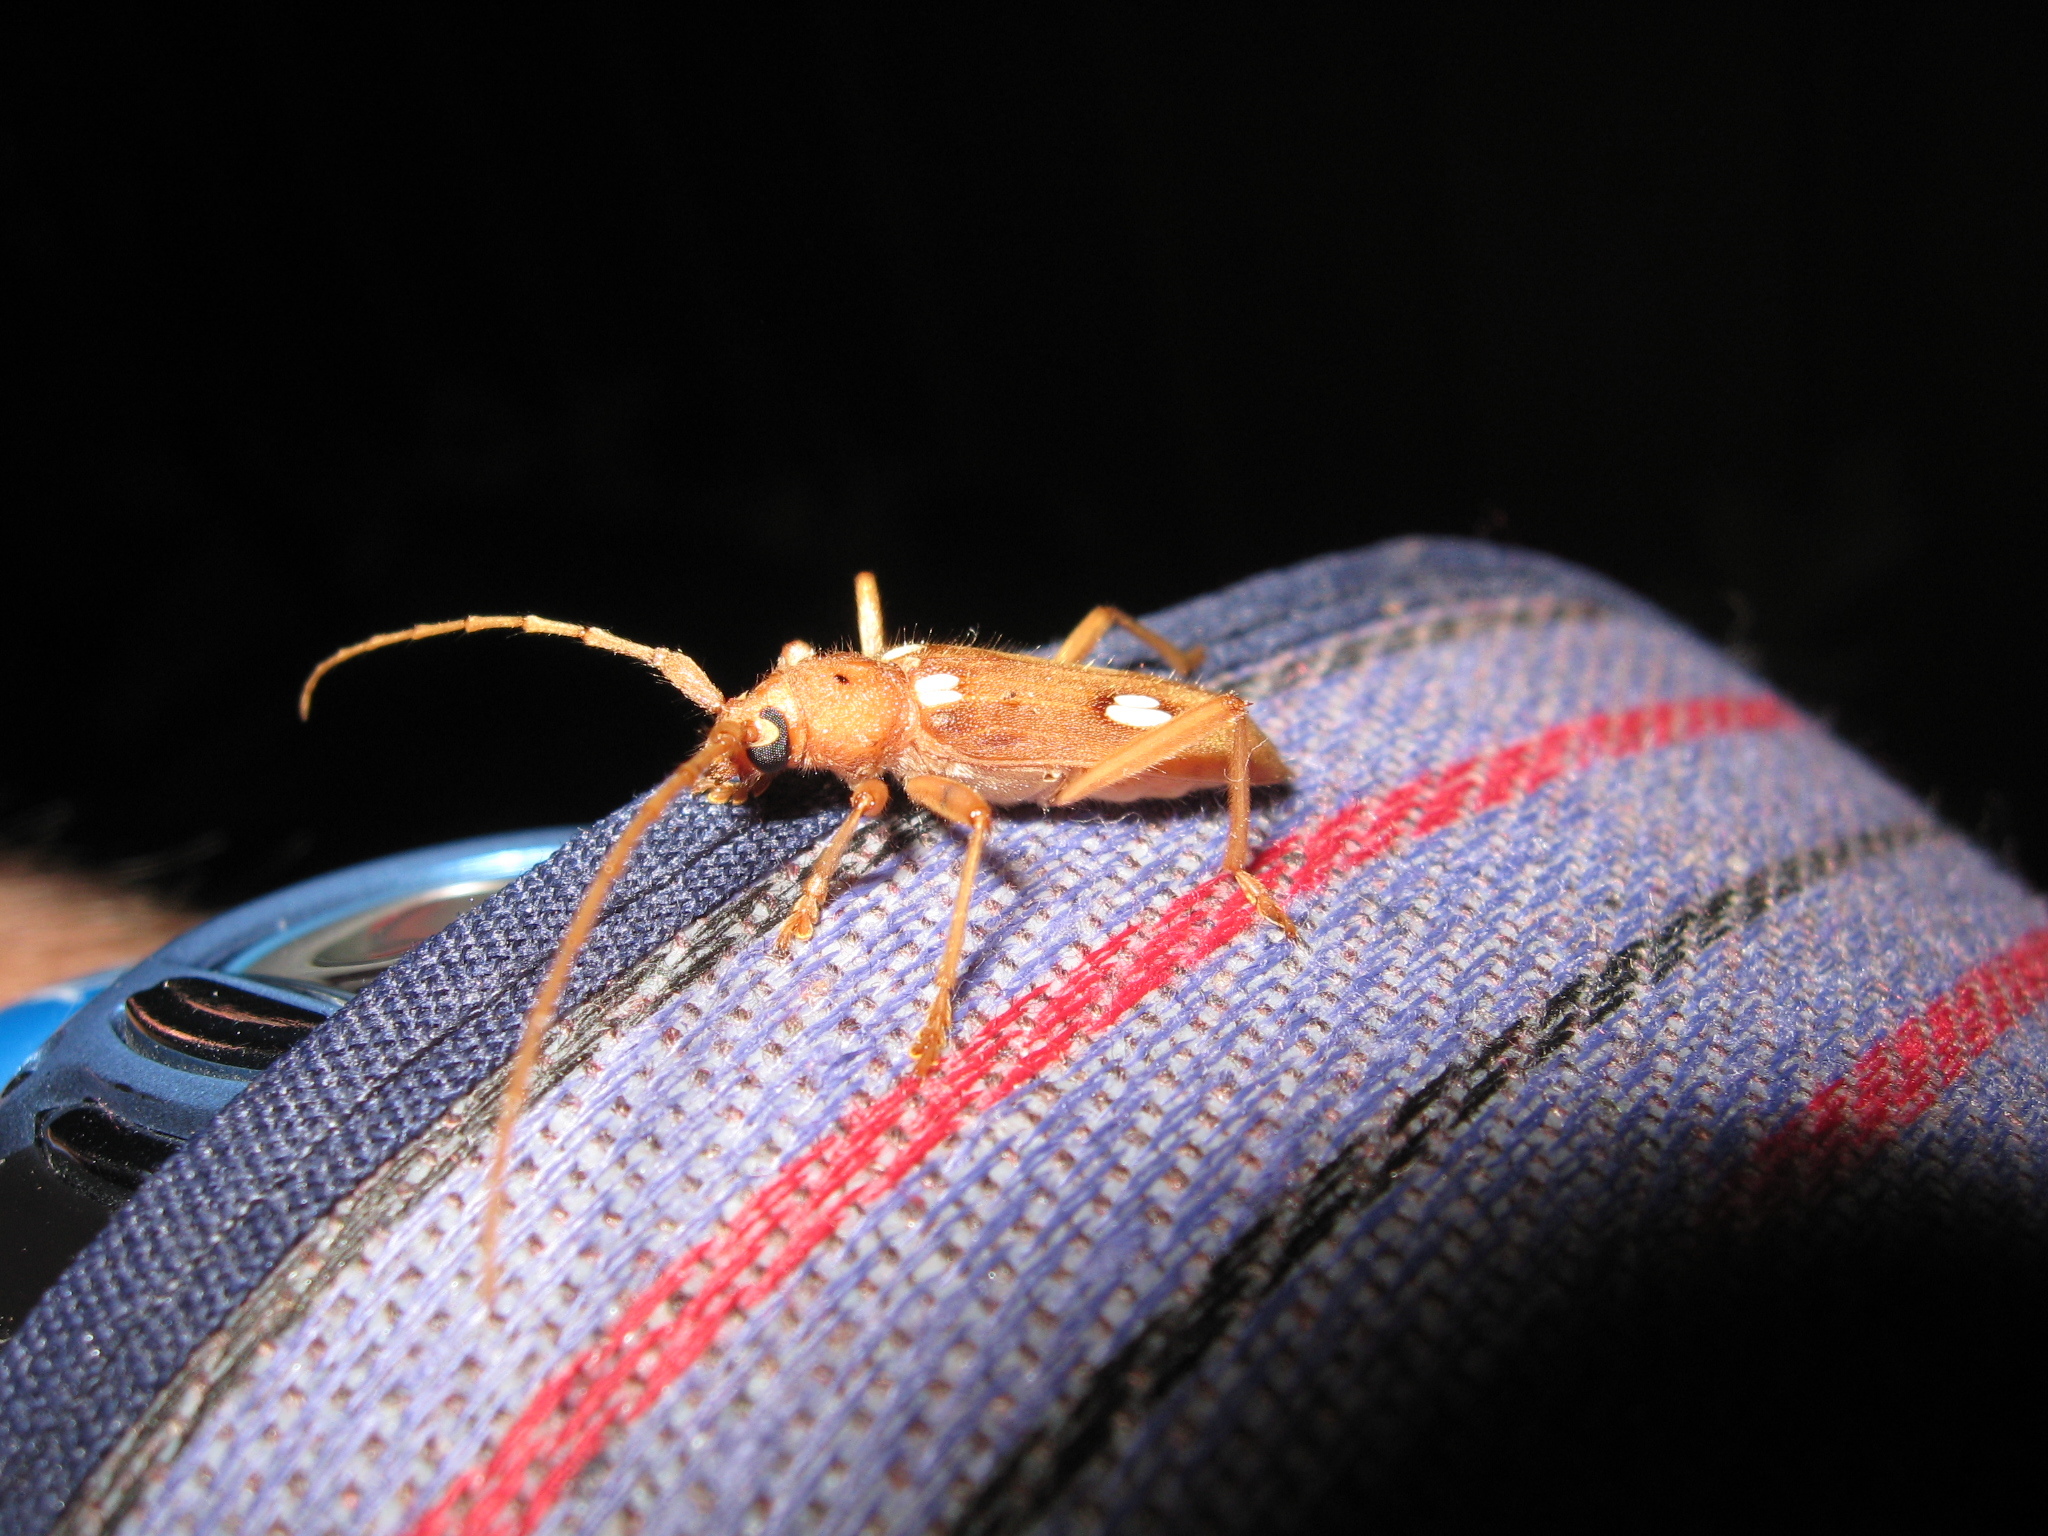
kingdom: Animalia
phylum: Arthropoda
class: Insecta
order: Coleoptera
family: Cerambycidae
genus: Eburia
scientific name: Eburia quadrigeminata
